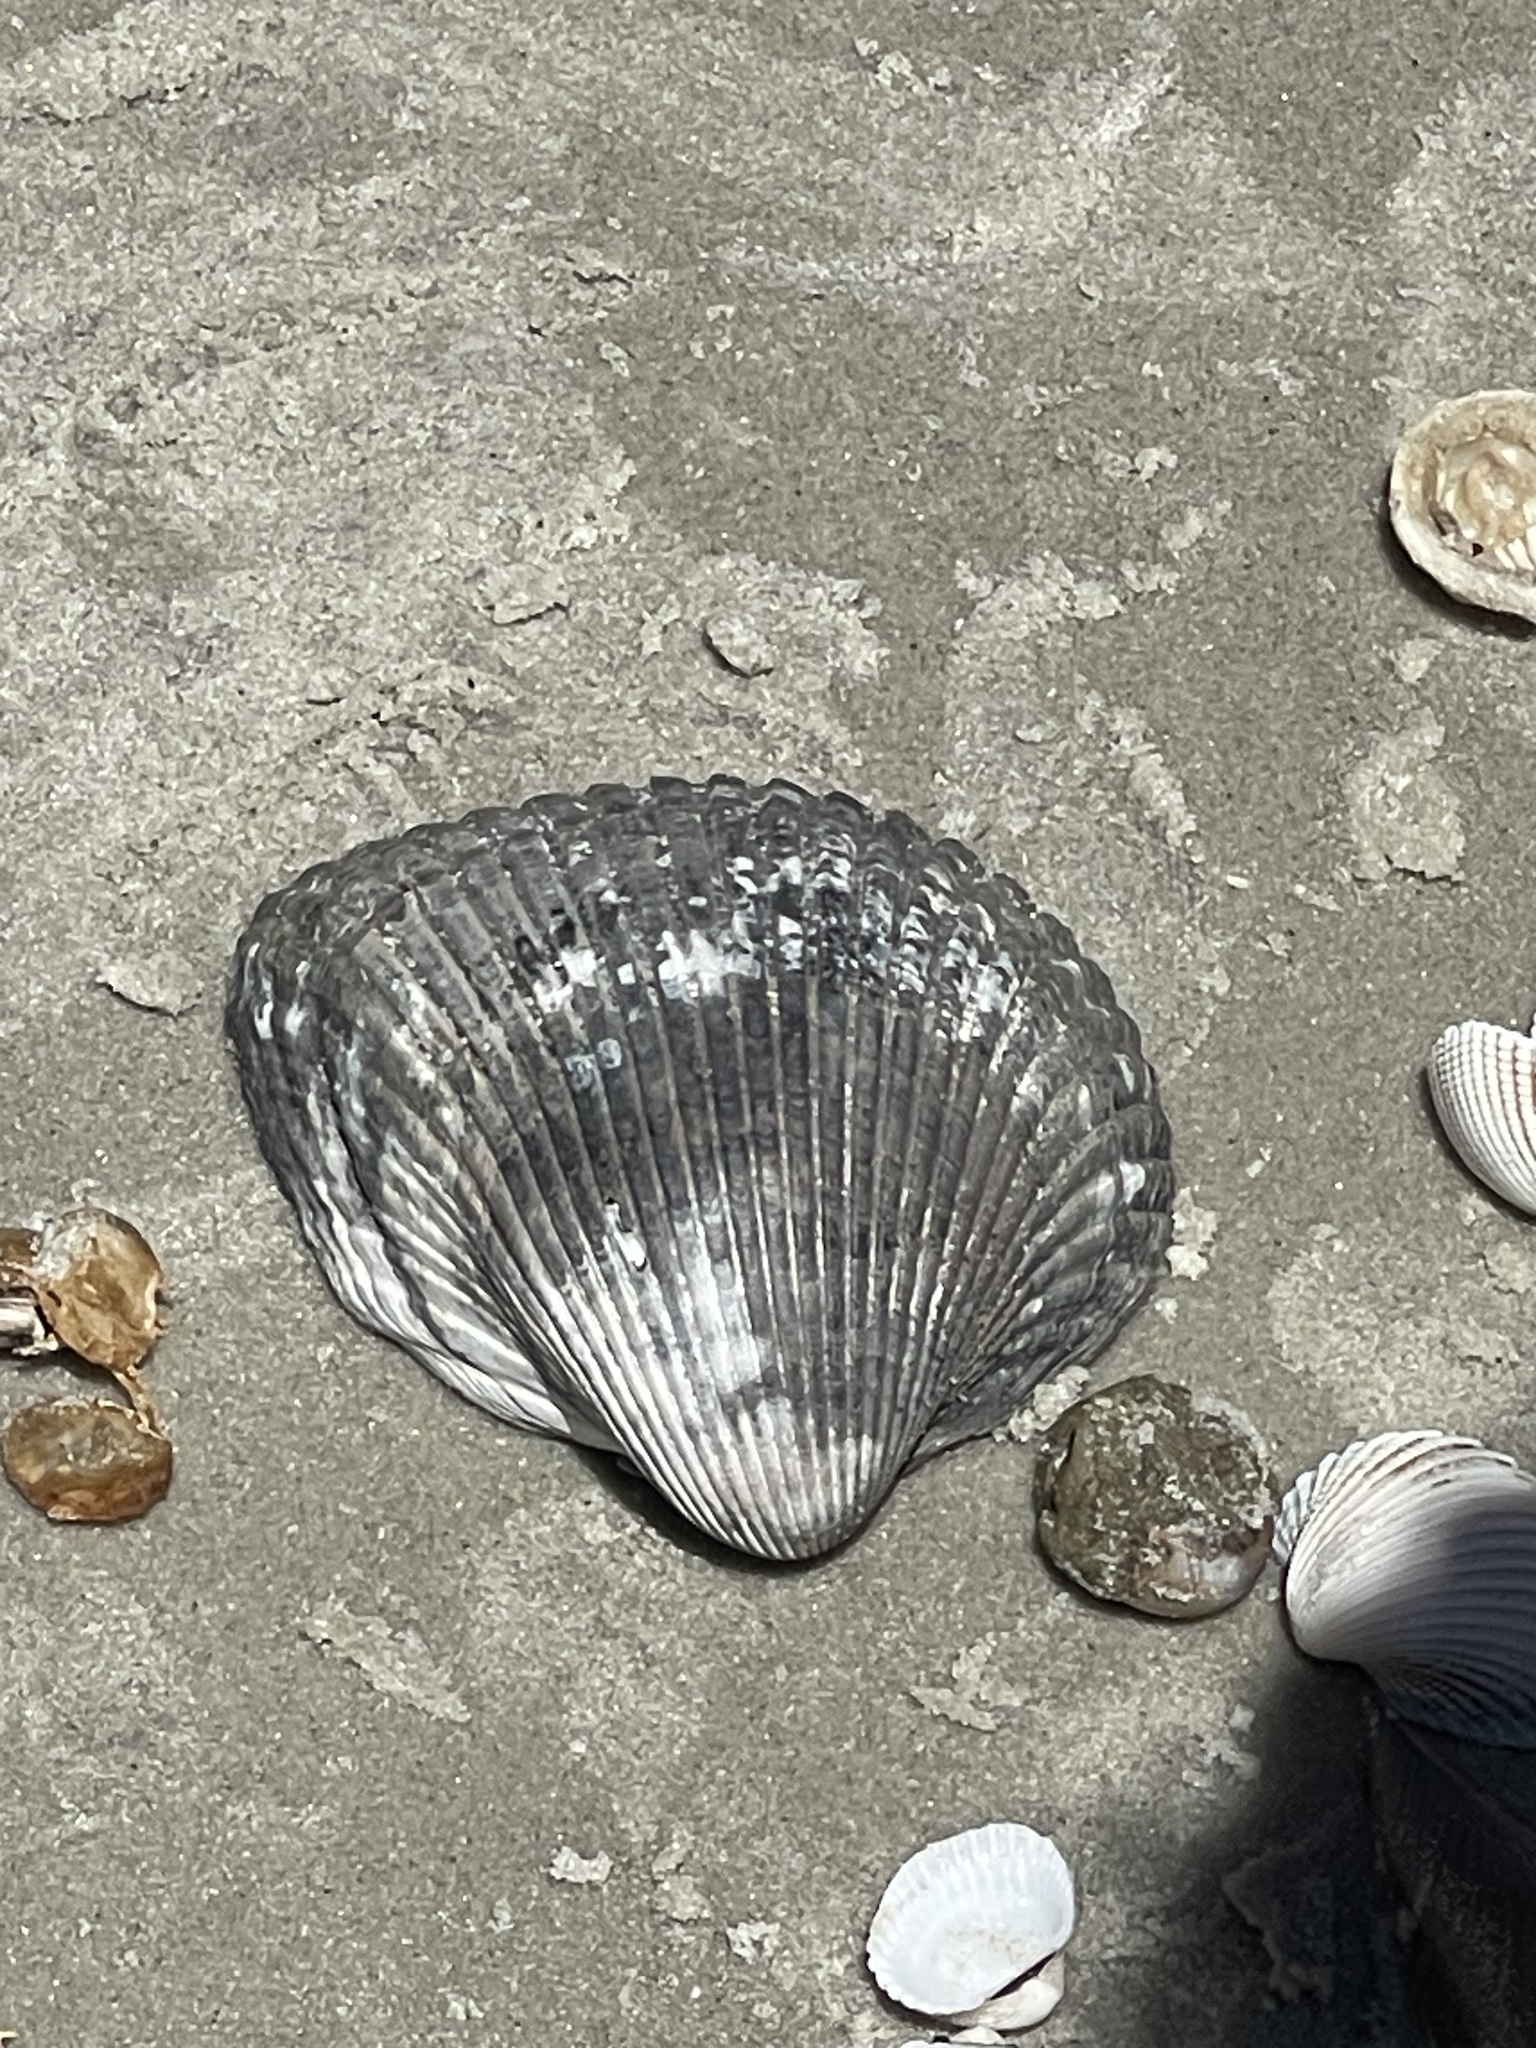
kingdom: Animalia
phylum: Mollusca
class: Bivalvia
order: Arcida
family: Arcidae
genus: Anadara
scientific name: Anadara brasiliana
